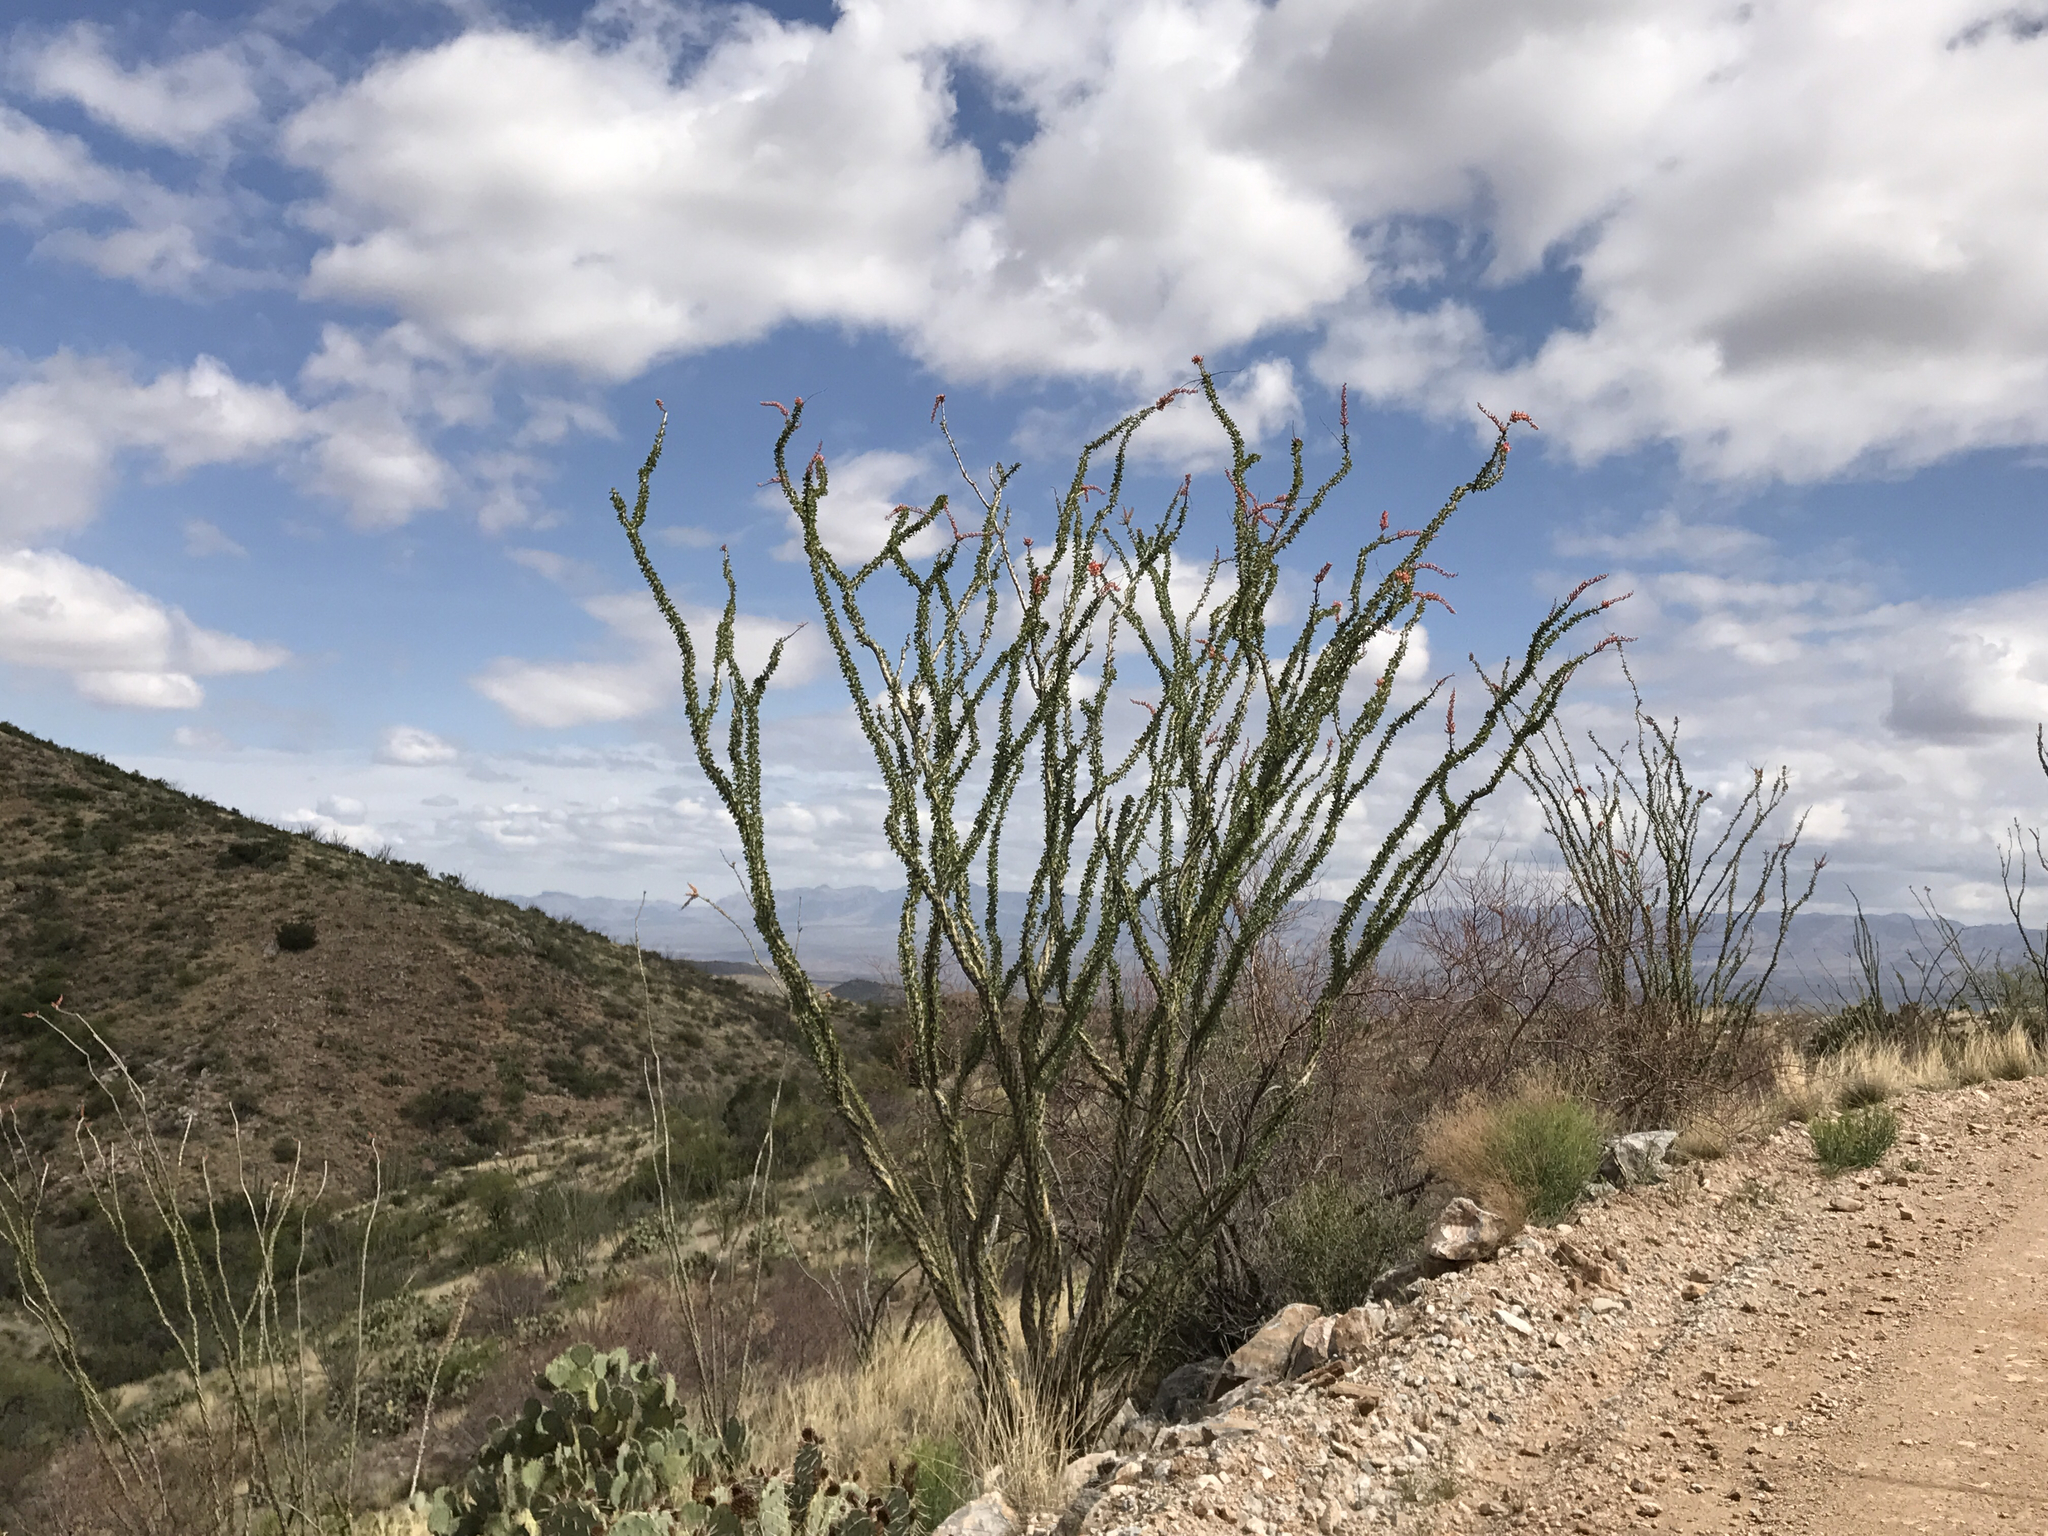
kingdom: Plantae
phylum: Tracheophyta
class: Magnoliopsida
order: Ericales
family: Fouquieriaceae
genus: Fouquieria
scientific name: Fouquieria splendens
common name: Vine-cactus
